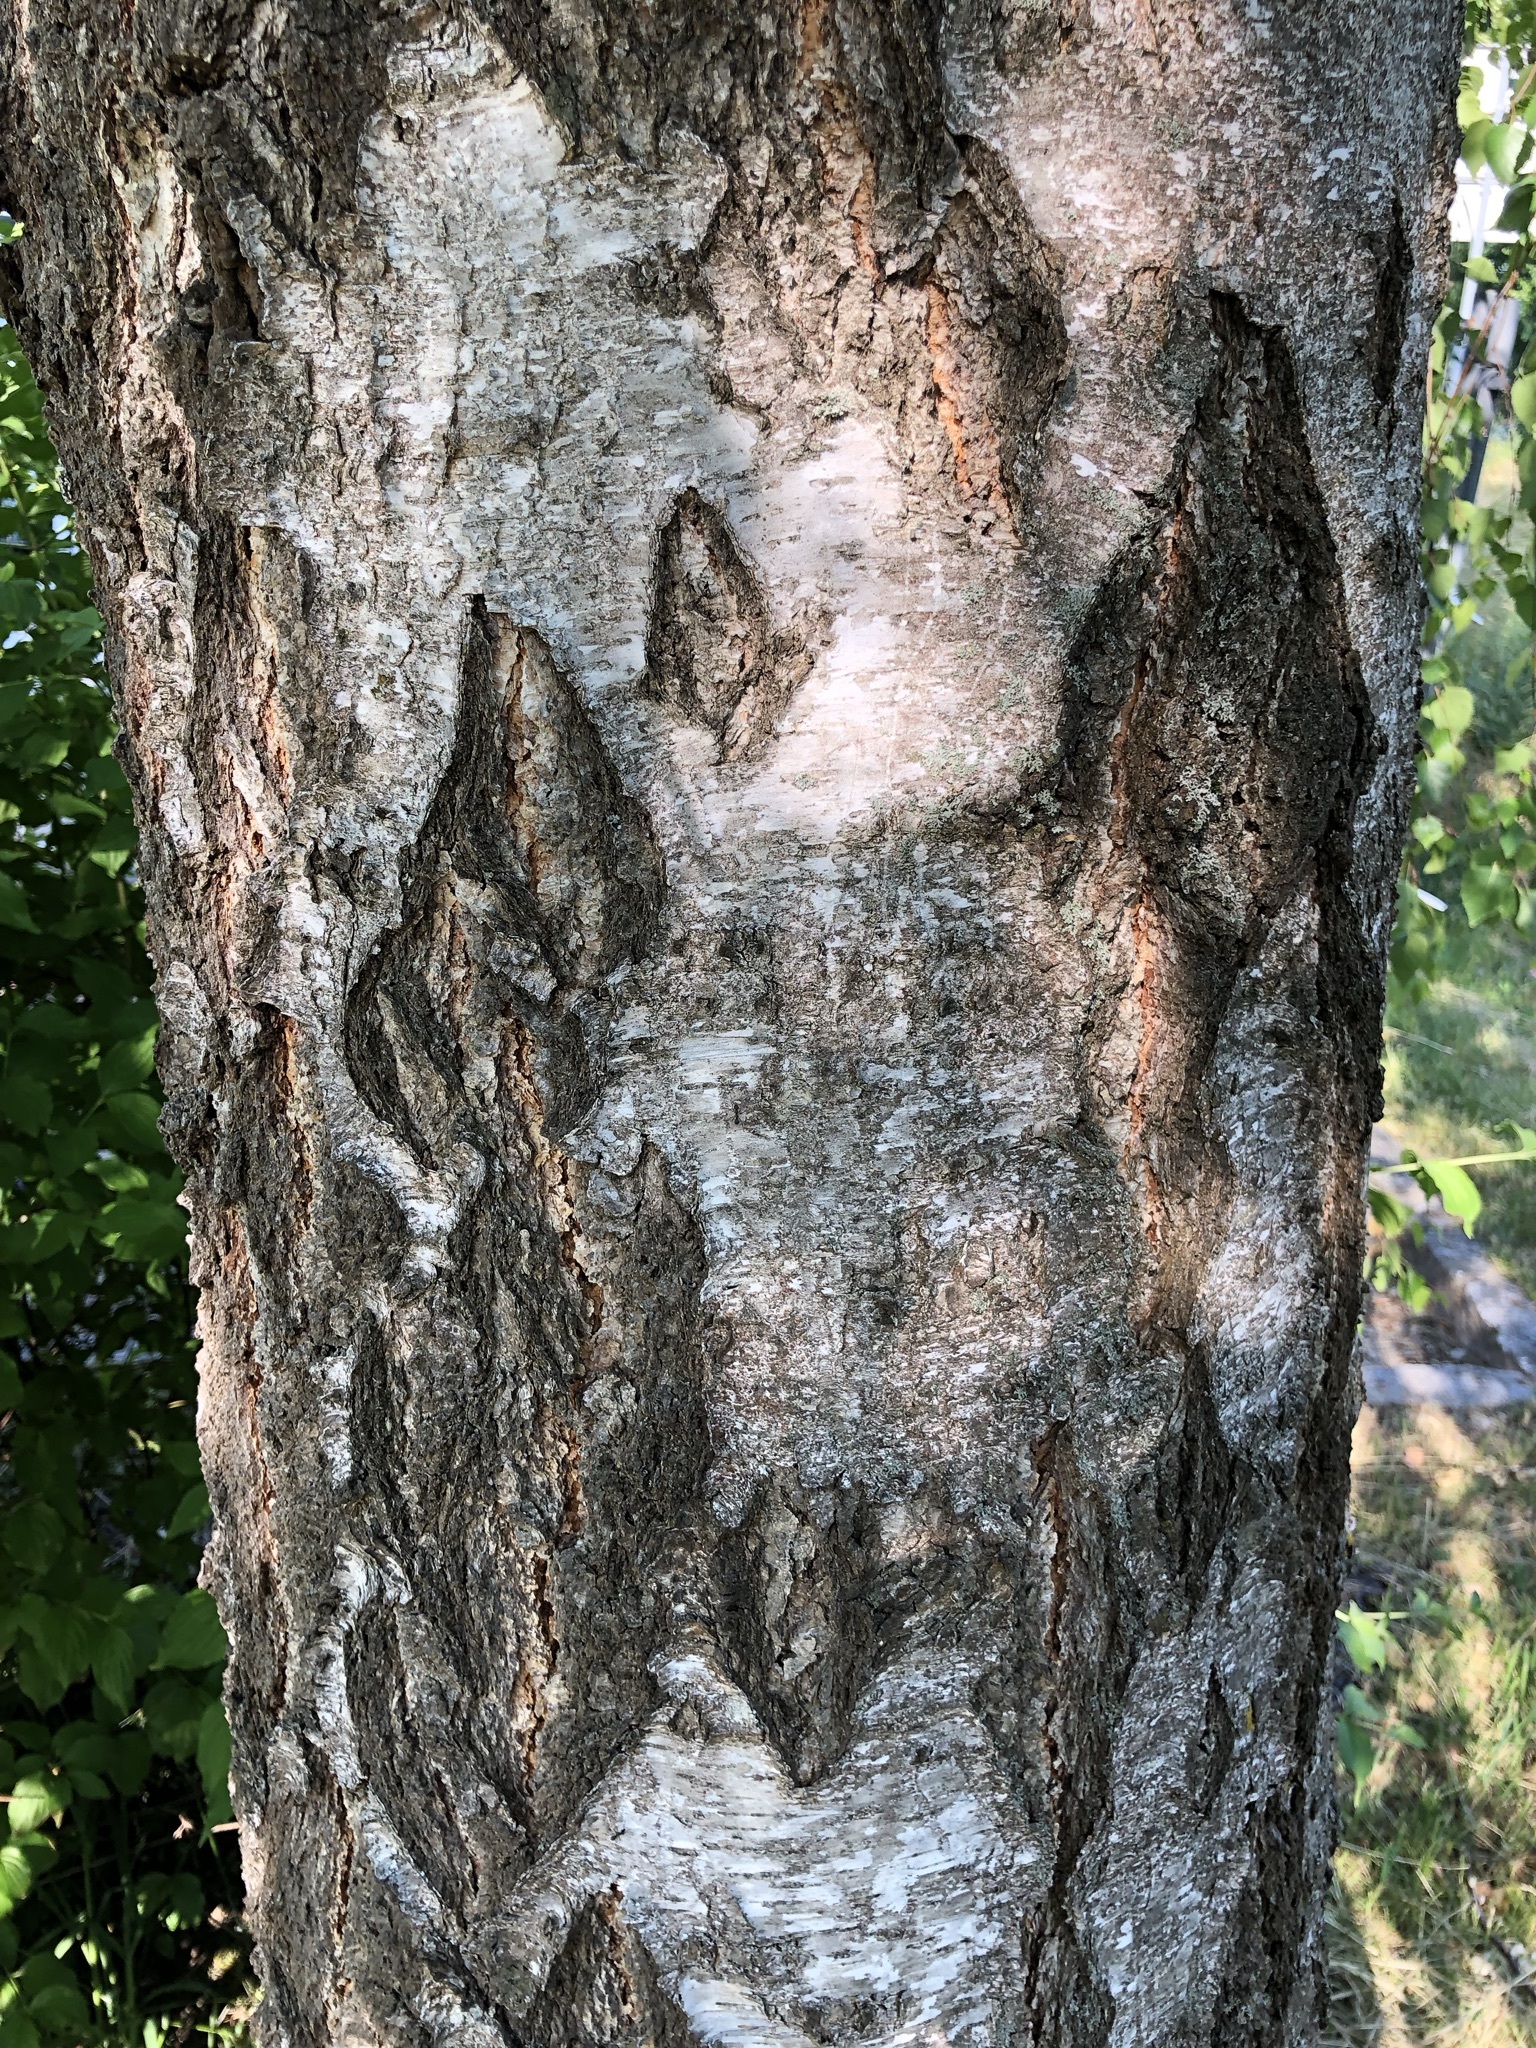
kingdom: Plantae
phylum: Tracheophyta
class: Magnoliopsida
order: Fagales
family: Betulaceae
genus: Betula
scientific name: Betula pendula
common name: Silver birch
